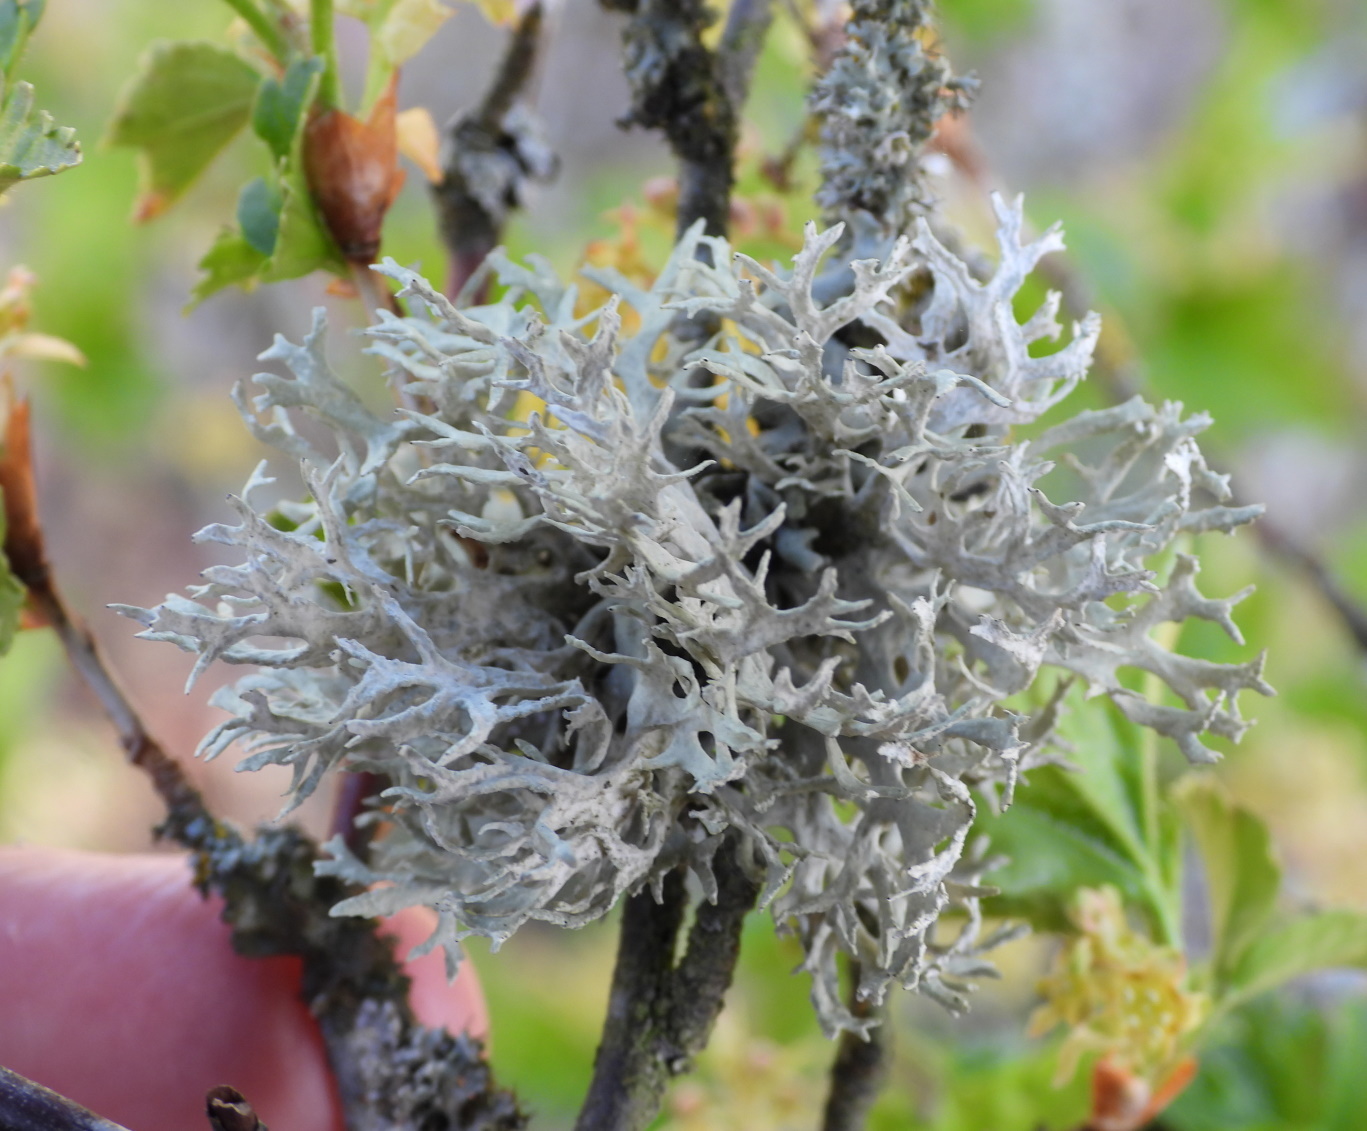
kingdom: Fungi
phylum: Ascomycota
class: Lecanoromycetes
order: Lecanorales
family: Parmeliaceae
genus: Evernia
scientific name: Evernia prunastri
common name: Oak moss
